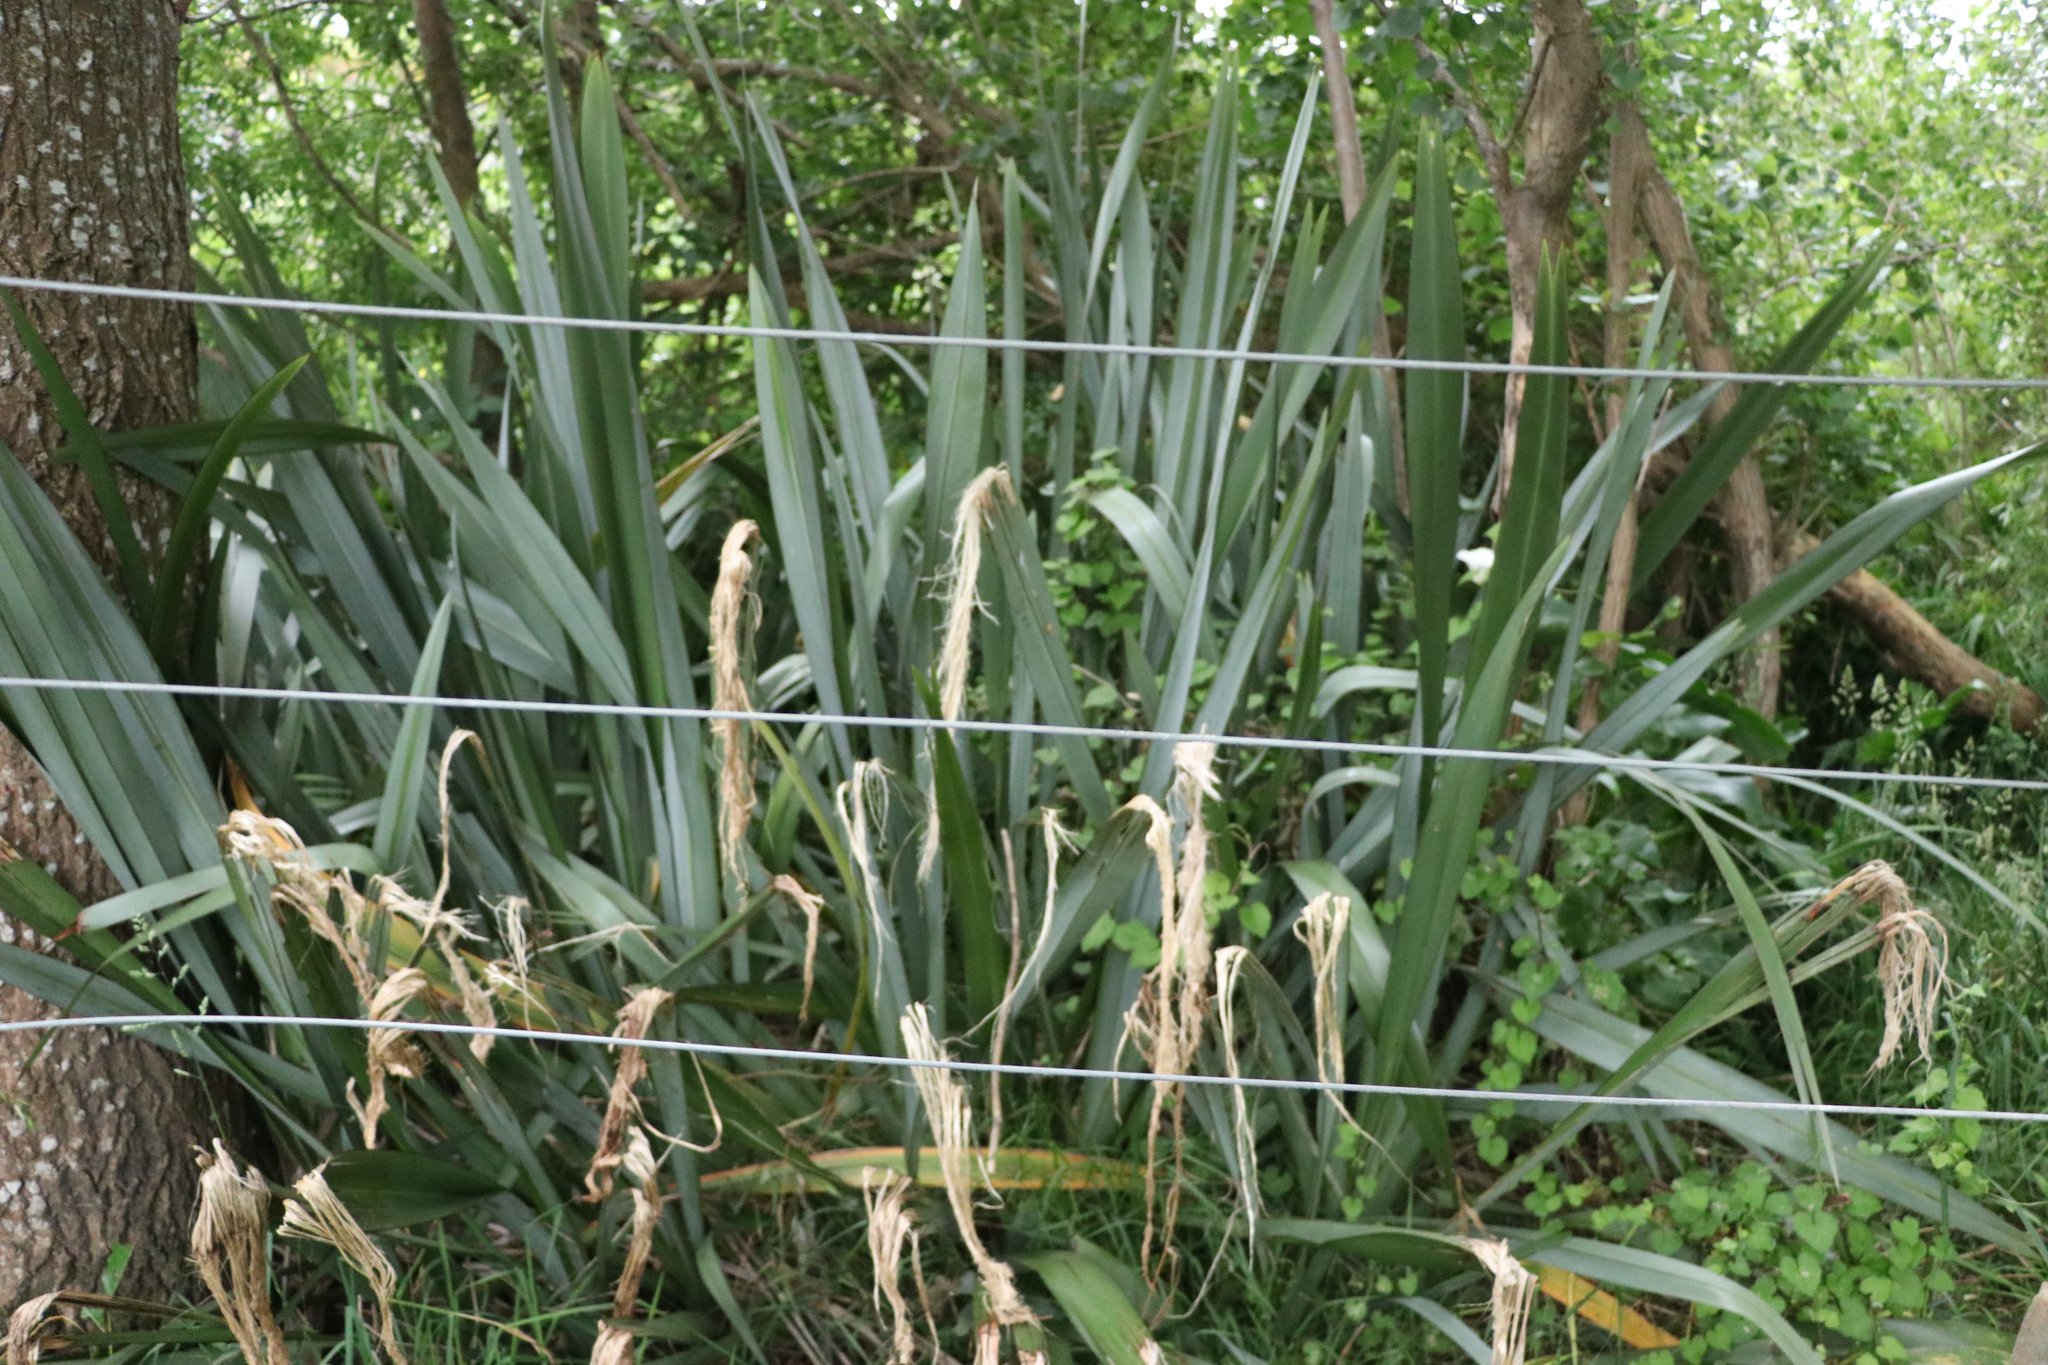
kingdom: Plantae
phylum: Tracheophyta
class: Liliopsida
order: Asparagales
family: Asphodelaceae
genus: Phormium
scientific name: Phormium tenax
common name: New zealand flax
